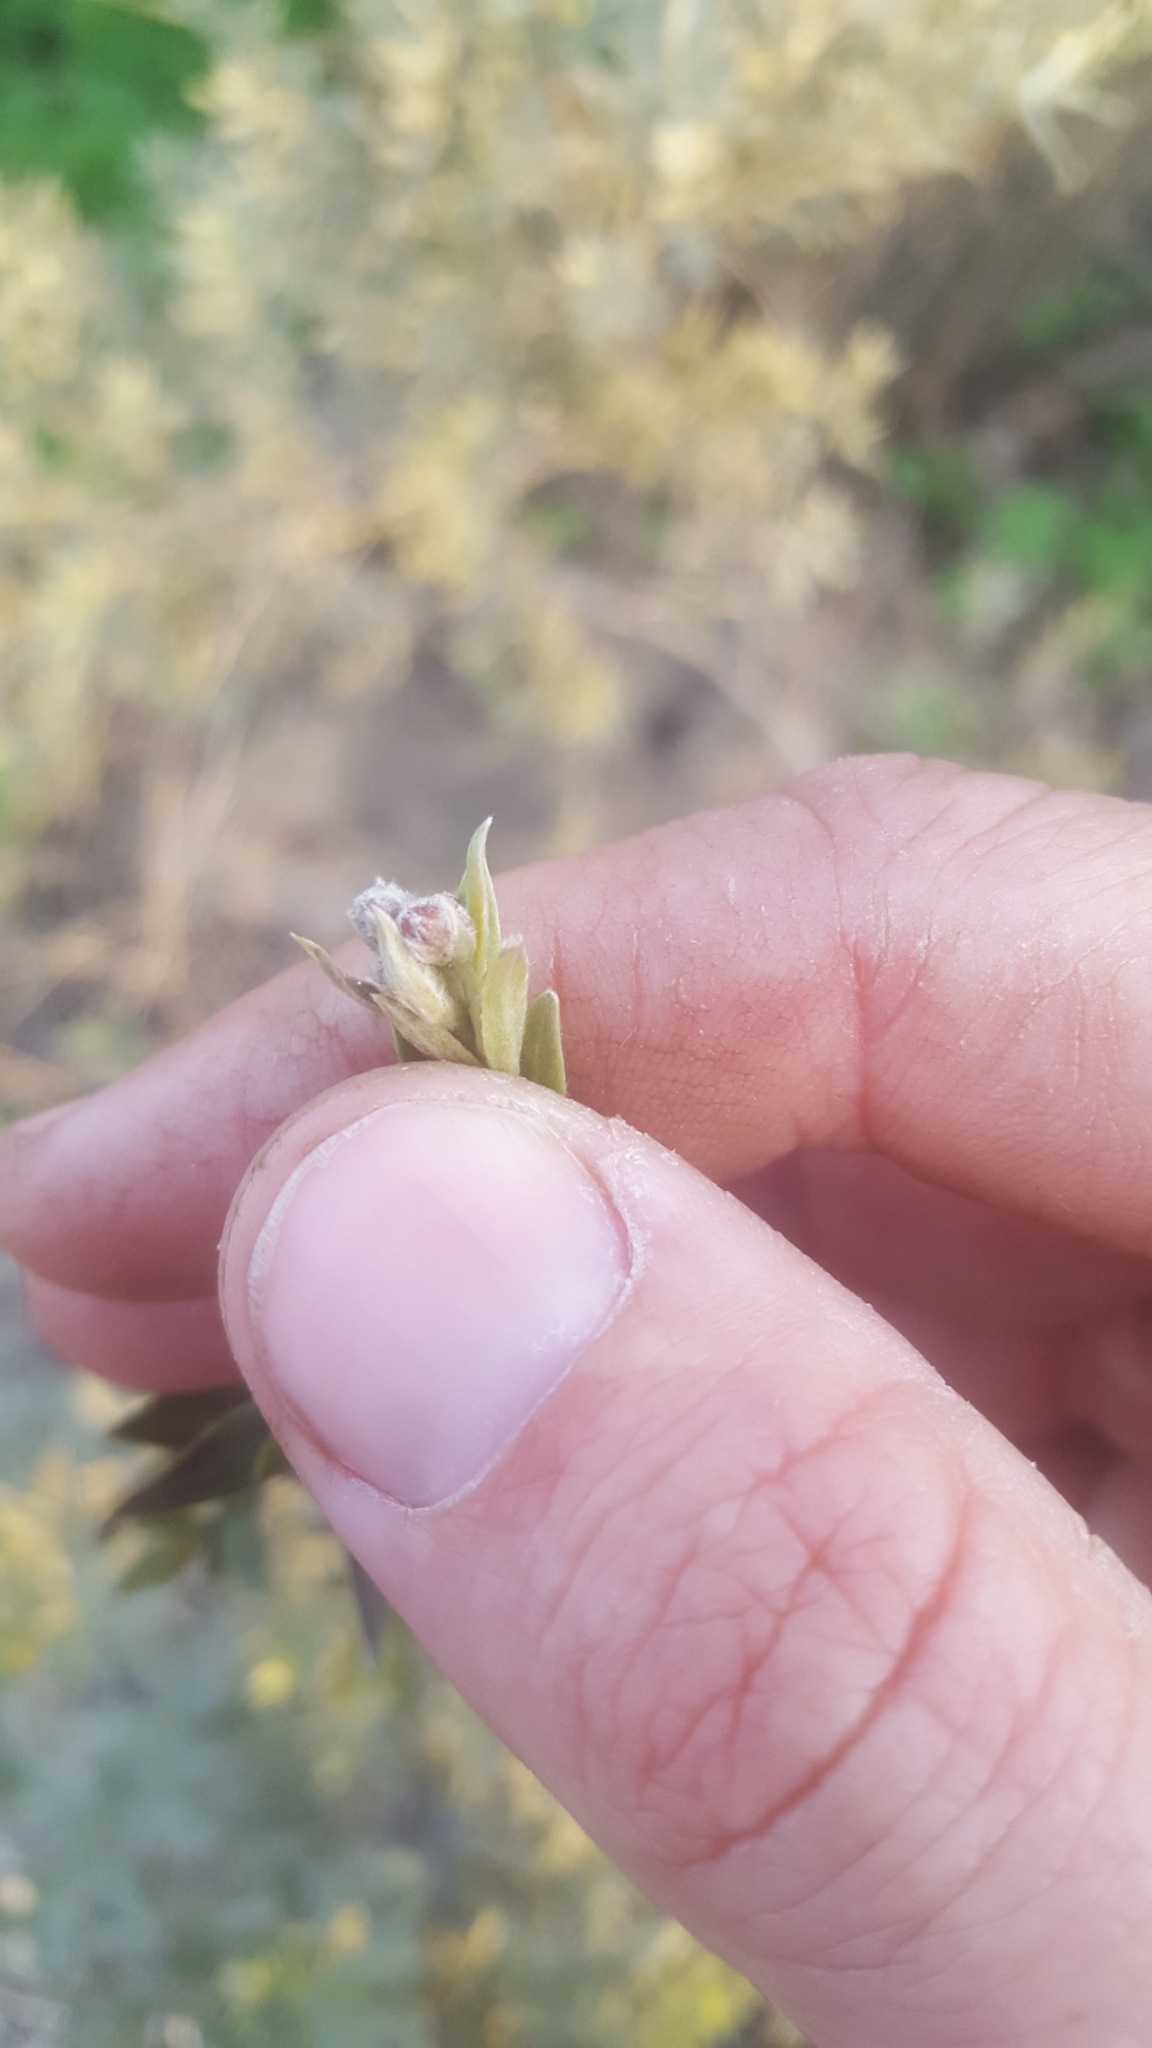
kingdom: Plantae
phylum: Tracheophyta
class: Magnoliopsida
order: Asterales
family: Asteraceae
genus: Pluchea
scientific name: Pluchea sericea
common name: Arrow-weed
